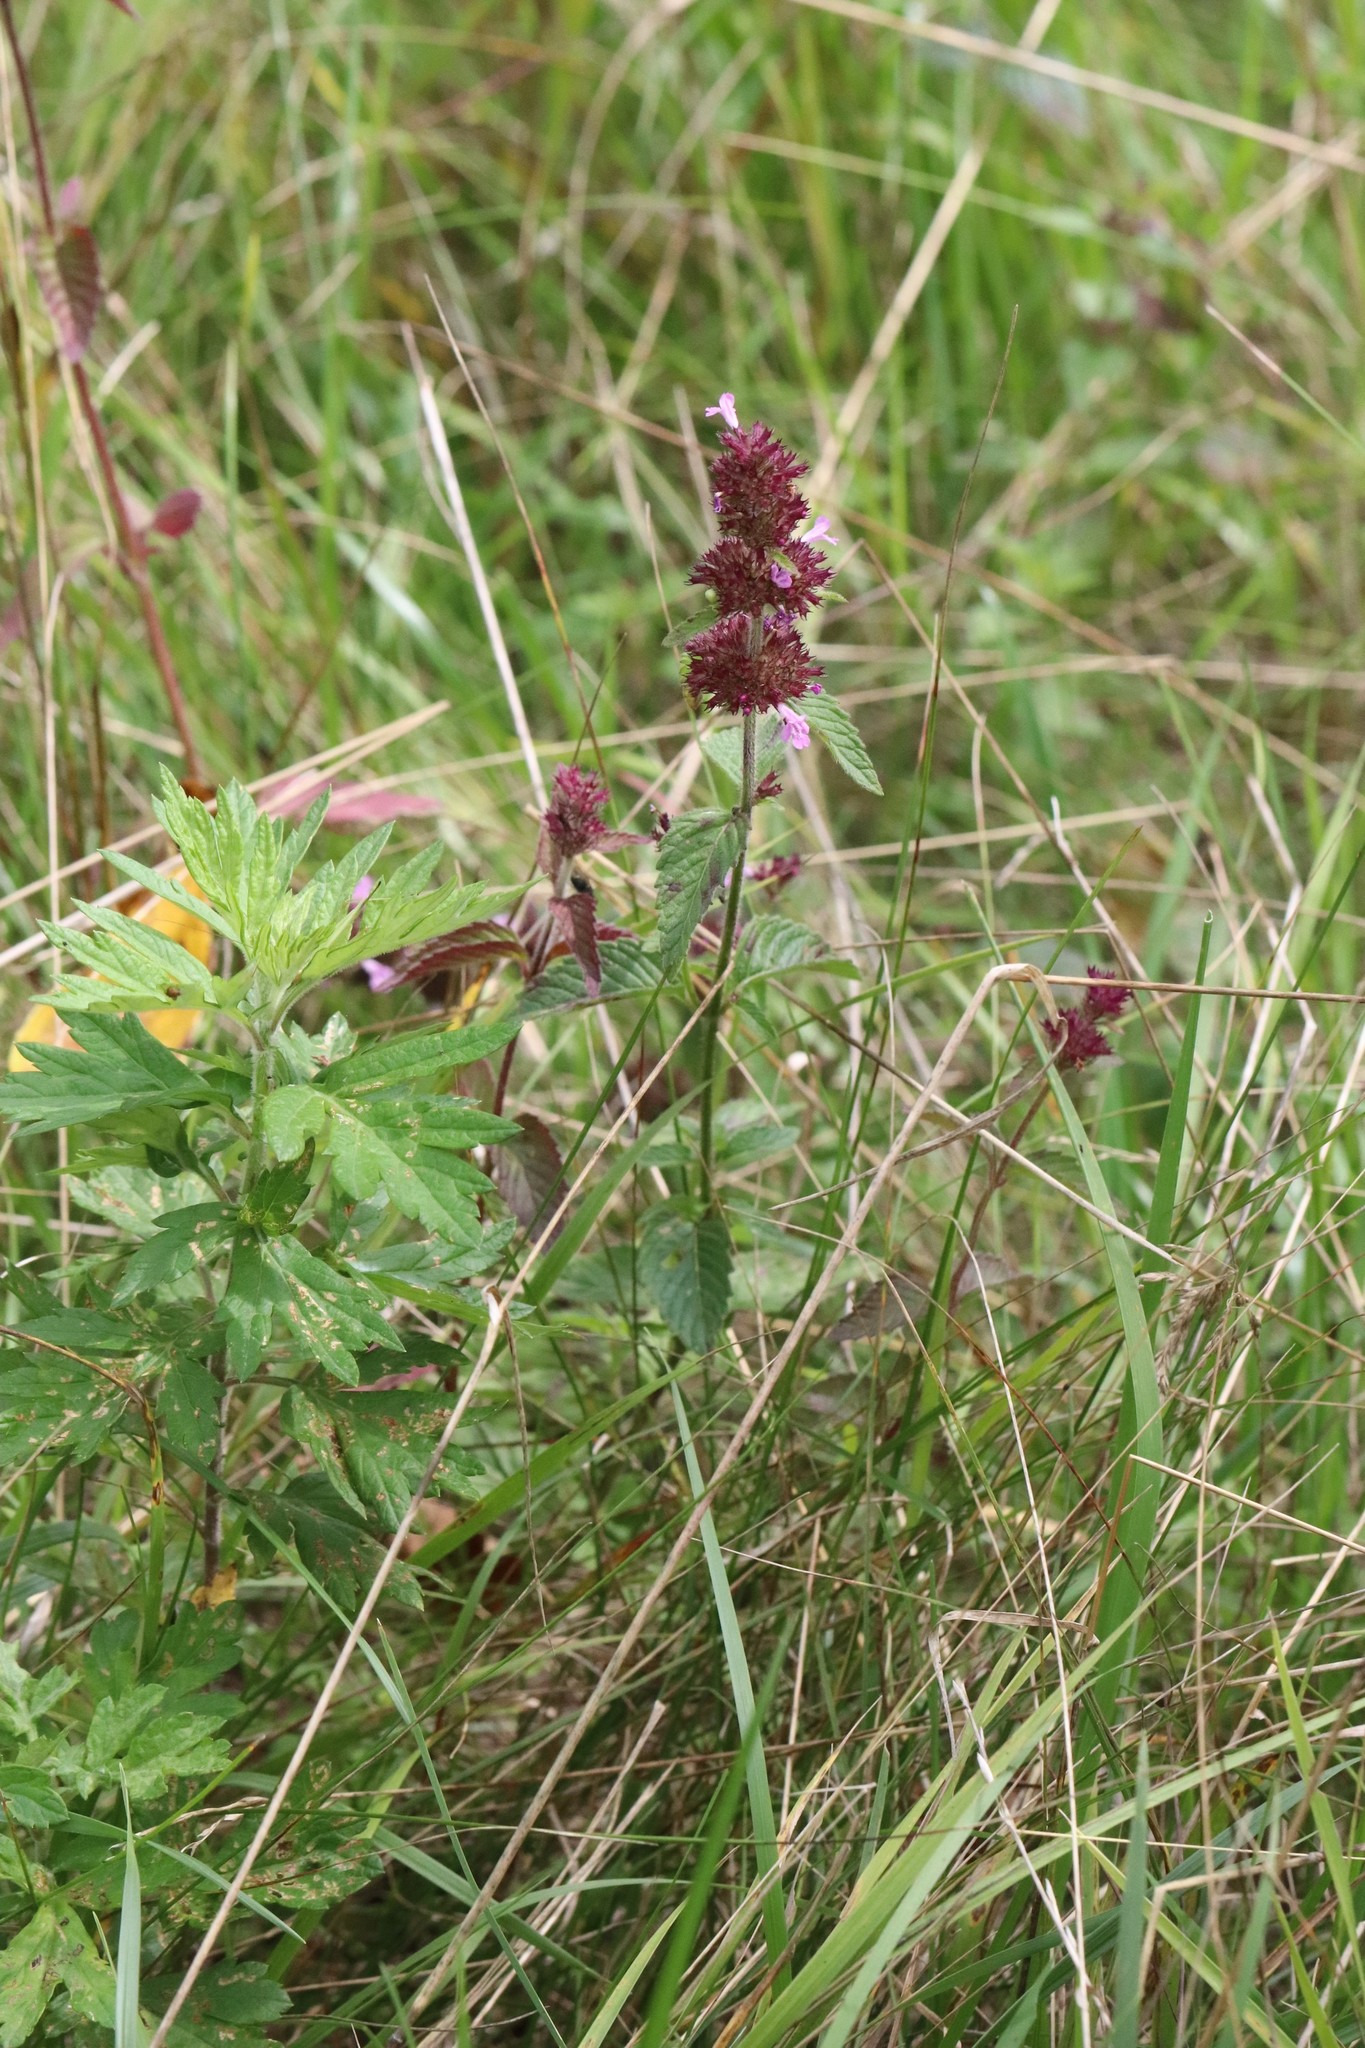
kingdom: Plantae
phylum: Tracheophyta
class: Magnoliopsida
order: Lamiales
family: Lamiaceae
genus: Clinopodium
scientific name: Clinopodium chinense
